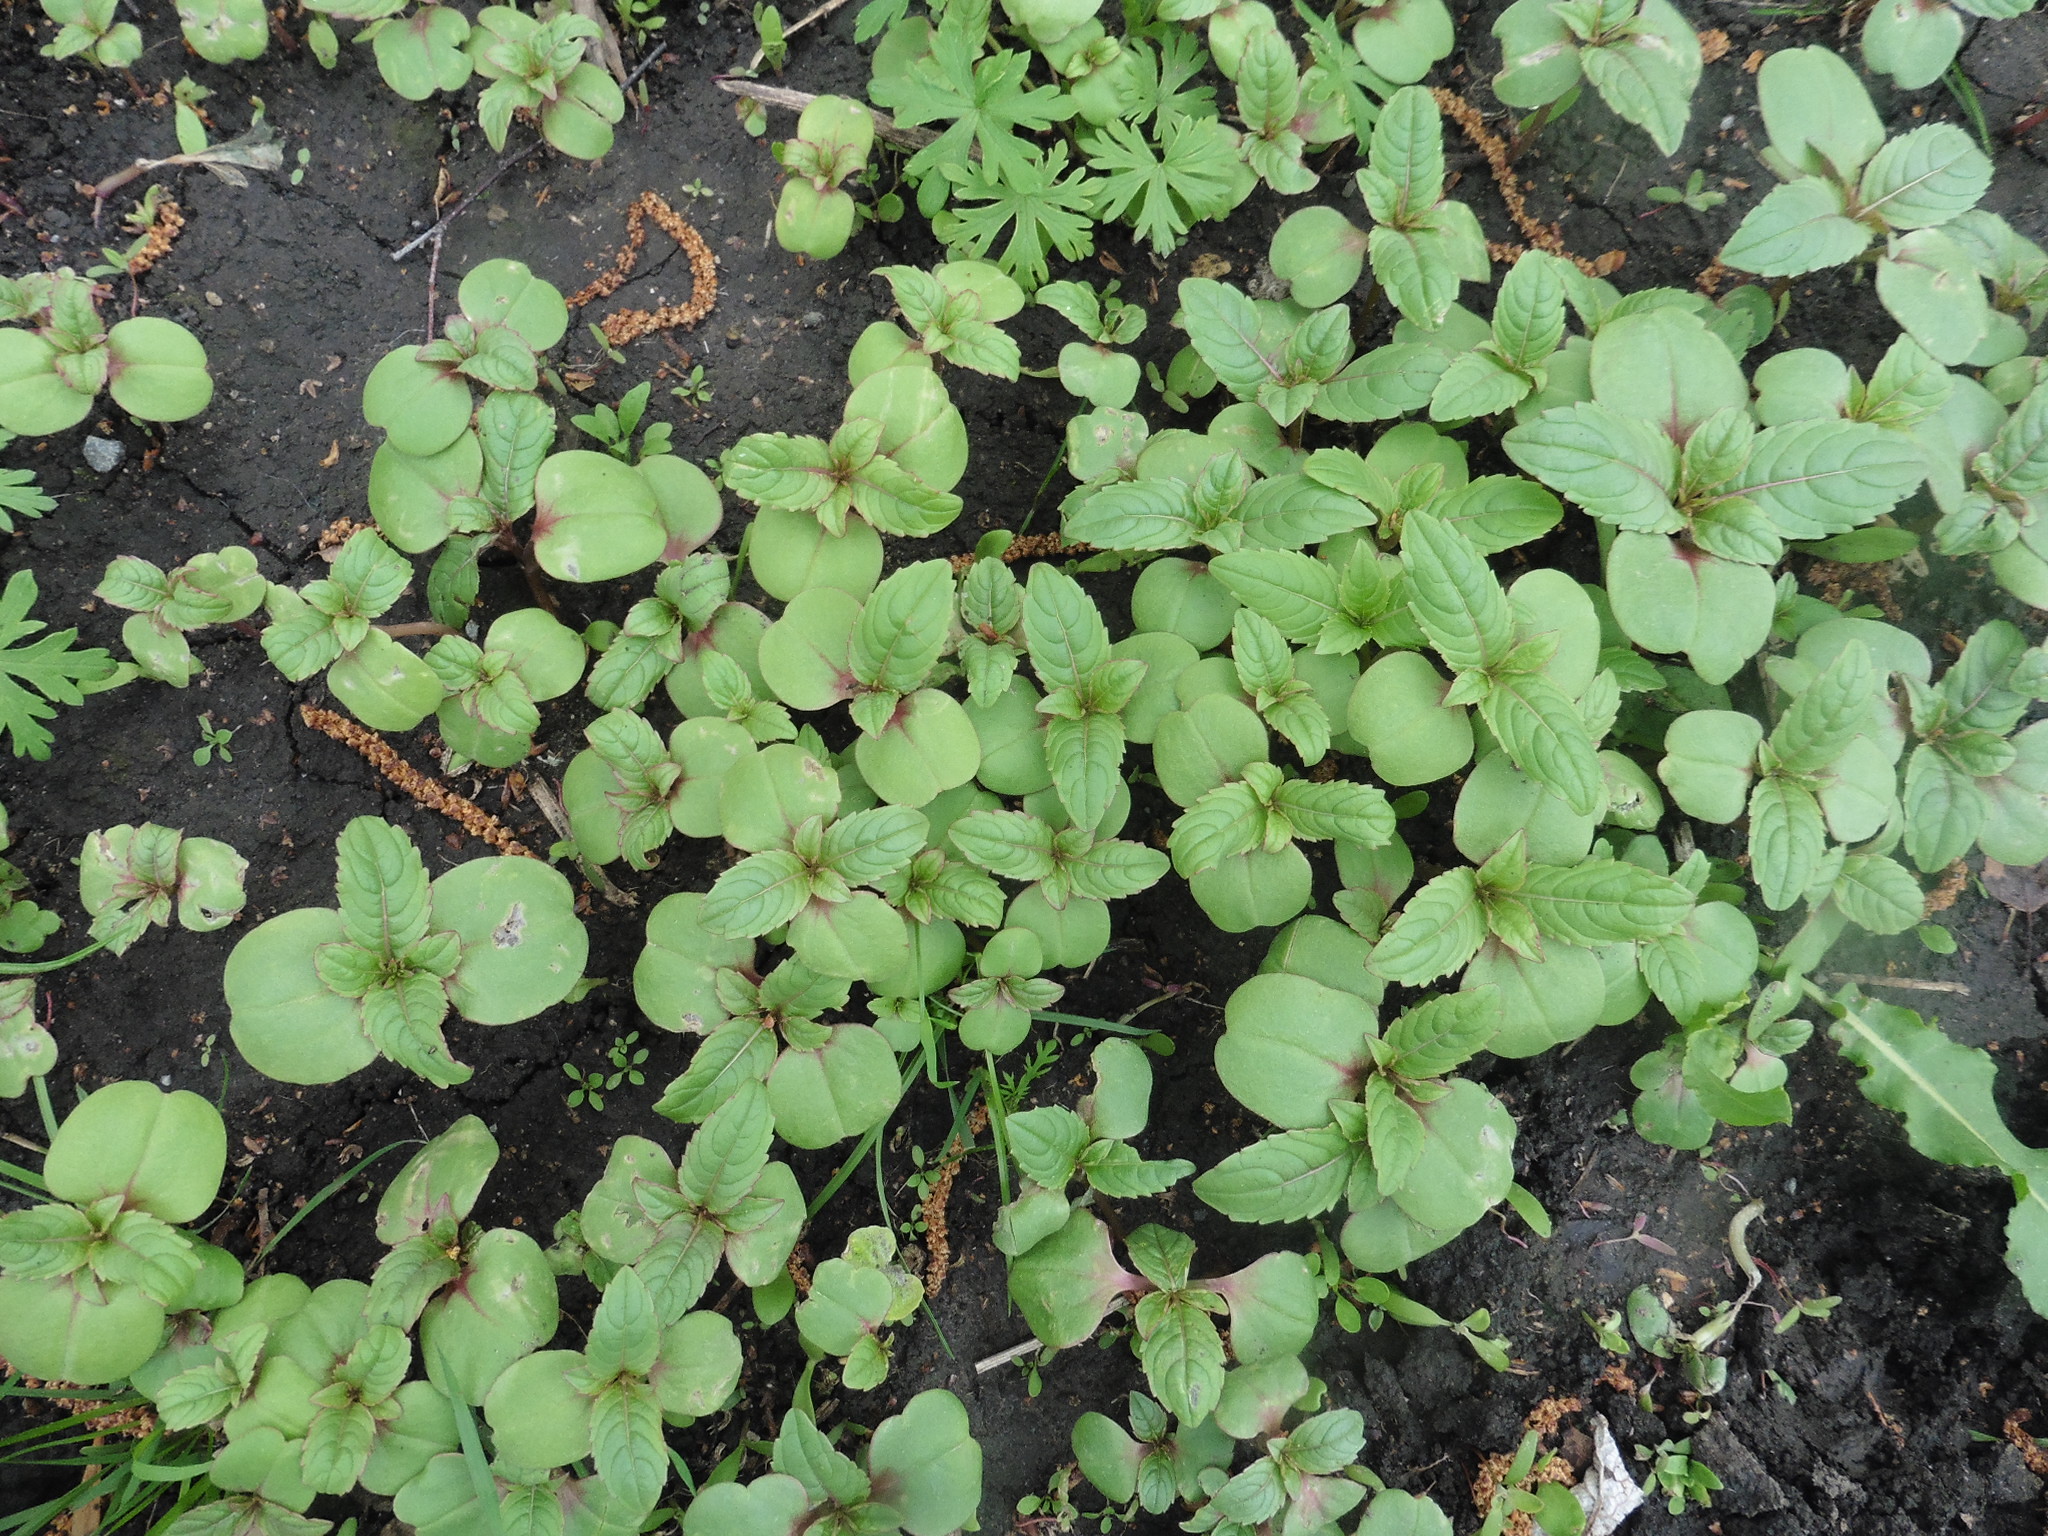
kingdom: Plantae
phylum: Tracheophyta
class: Magnoliopsida
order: Ericales
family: Balsaminaceae
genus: Impatiens
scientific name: Impatiens glandulifera
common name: Himalayan balsam
